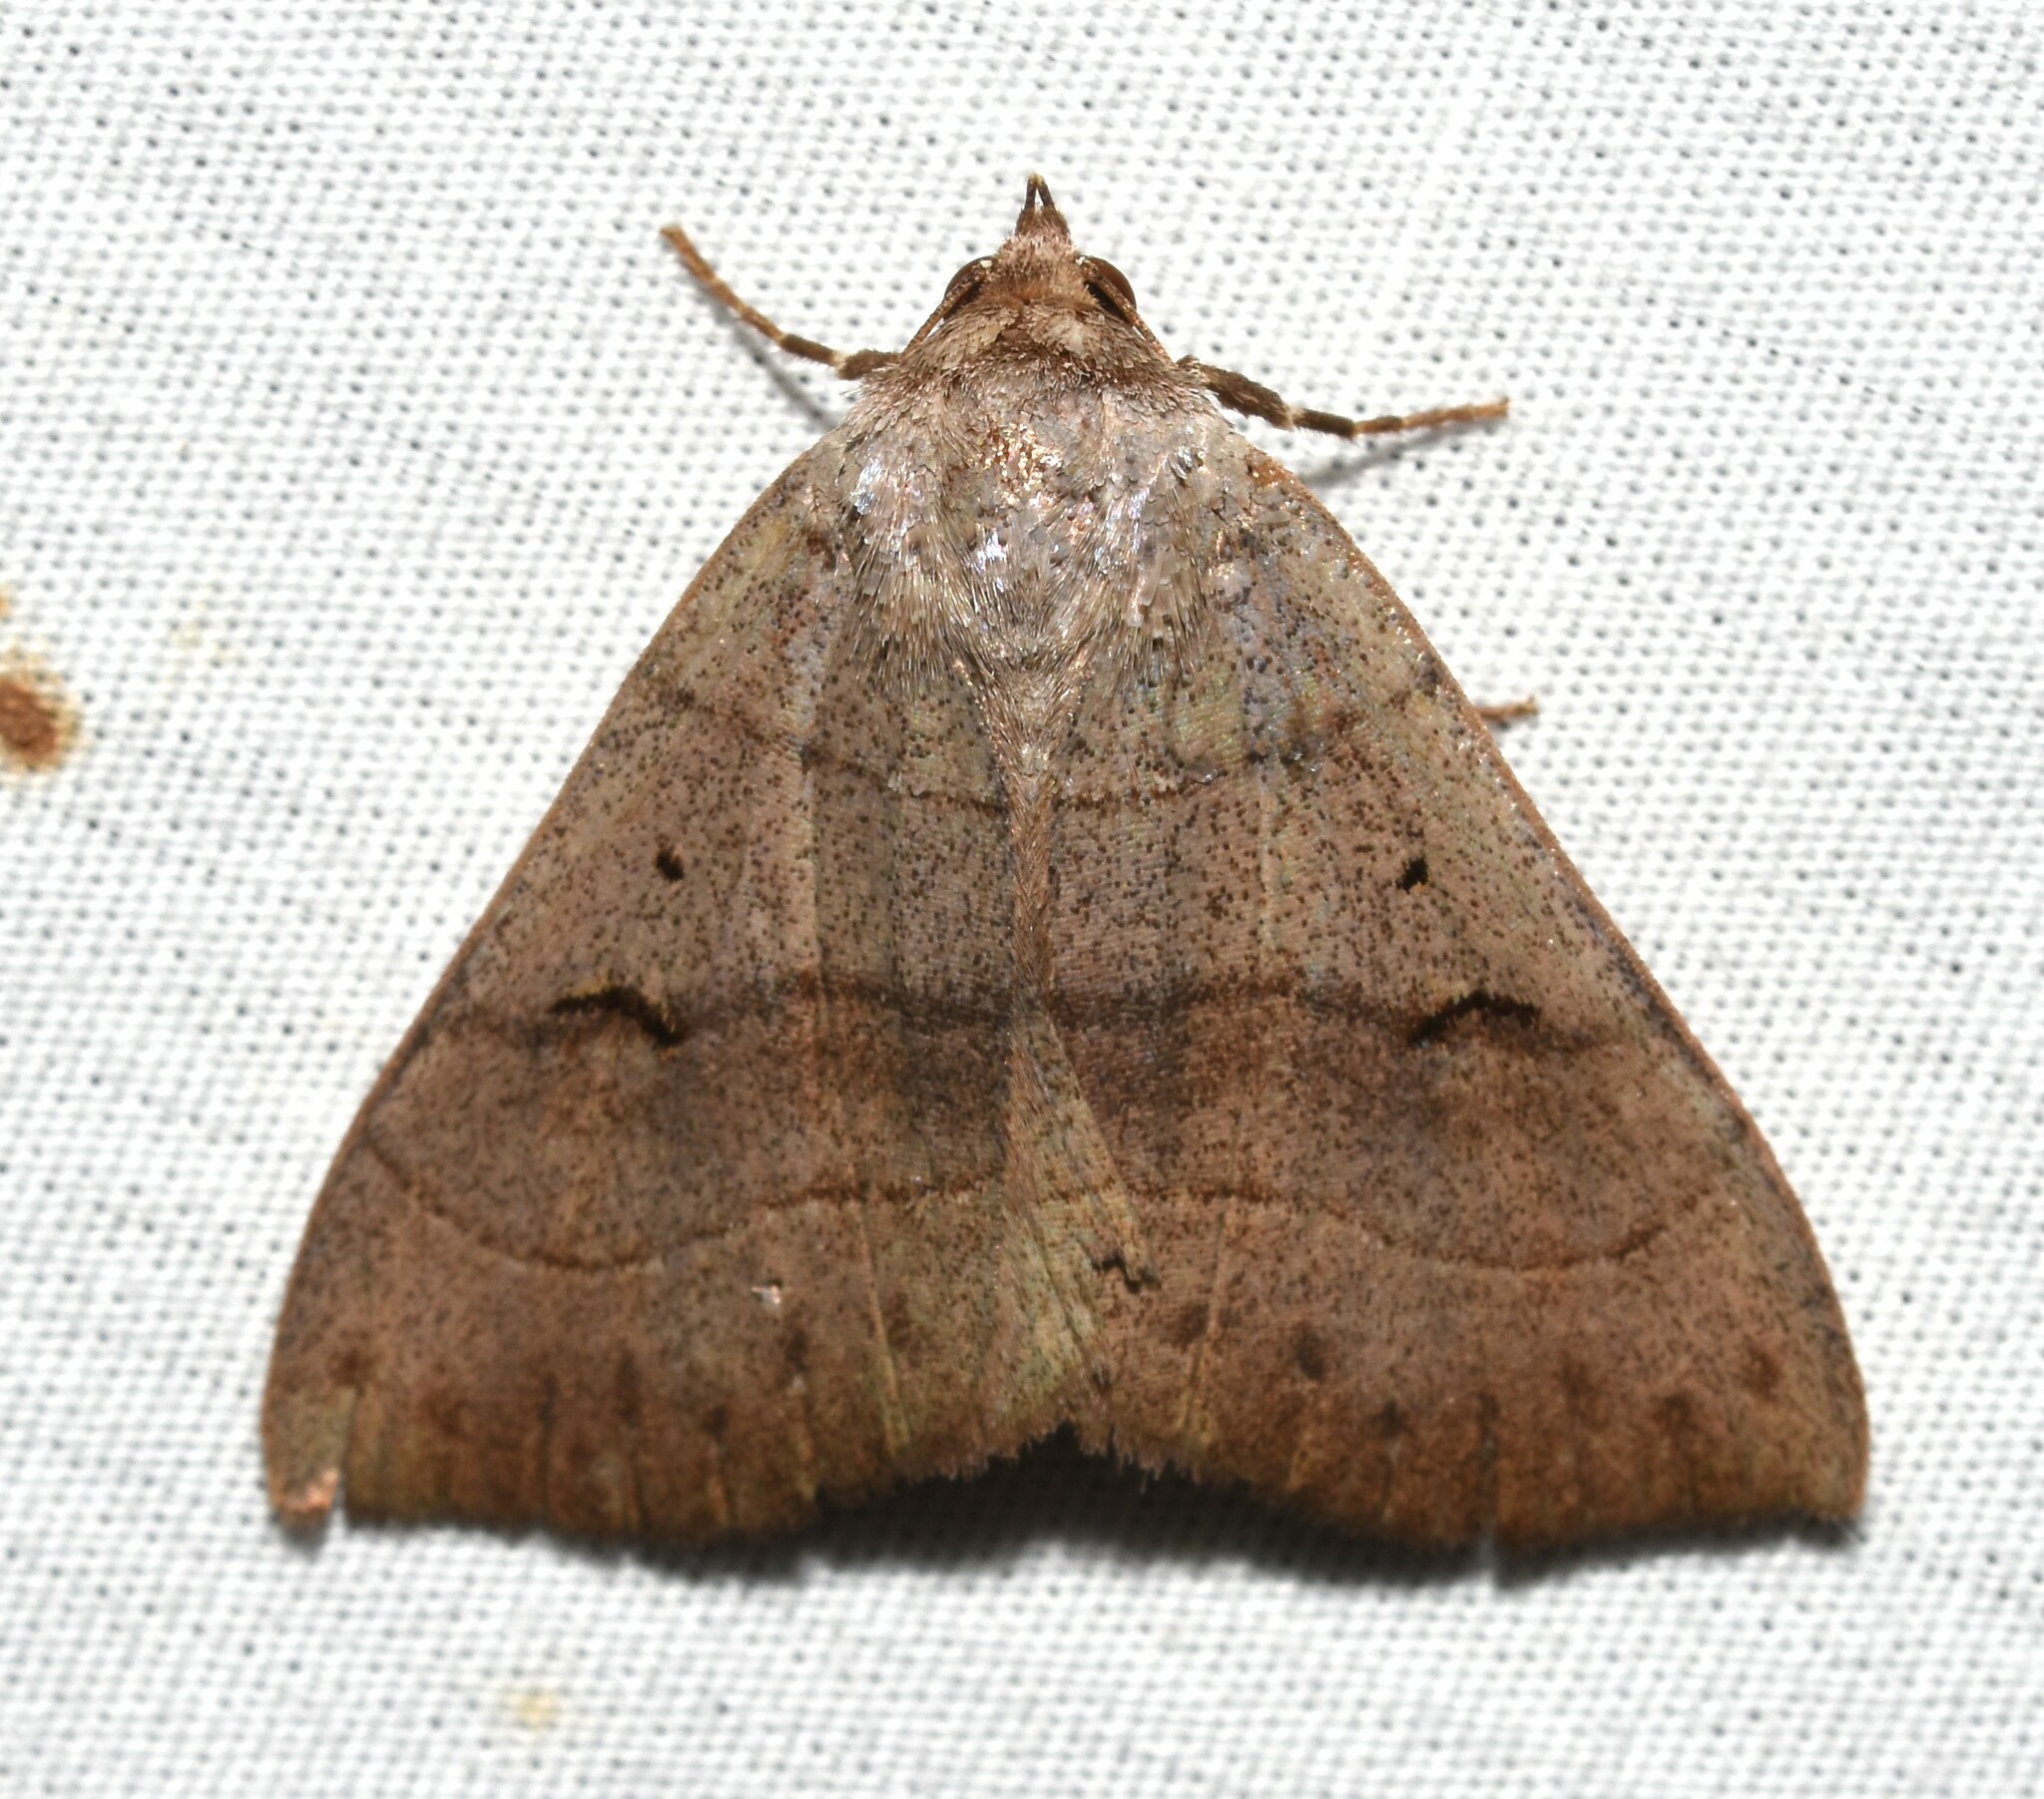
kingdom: Animalia
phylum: Arthropoda
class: Insecta
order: Lepidoptera
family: Erebidae
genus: Panopoda
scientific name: Panopoda carneicosta
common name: Brown panopoda moth
